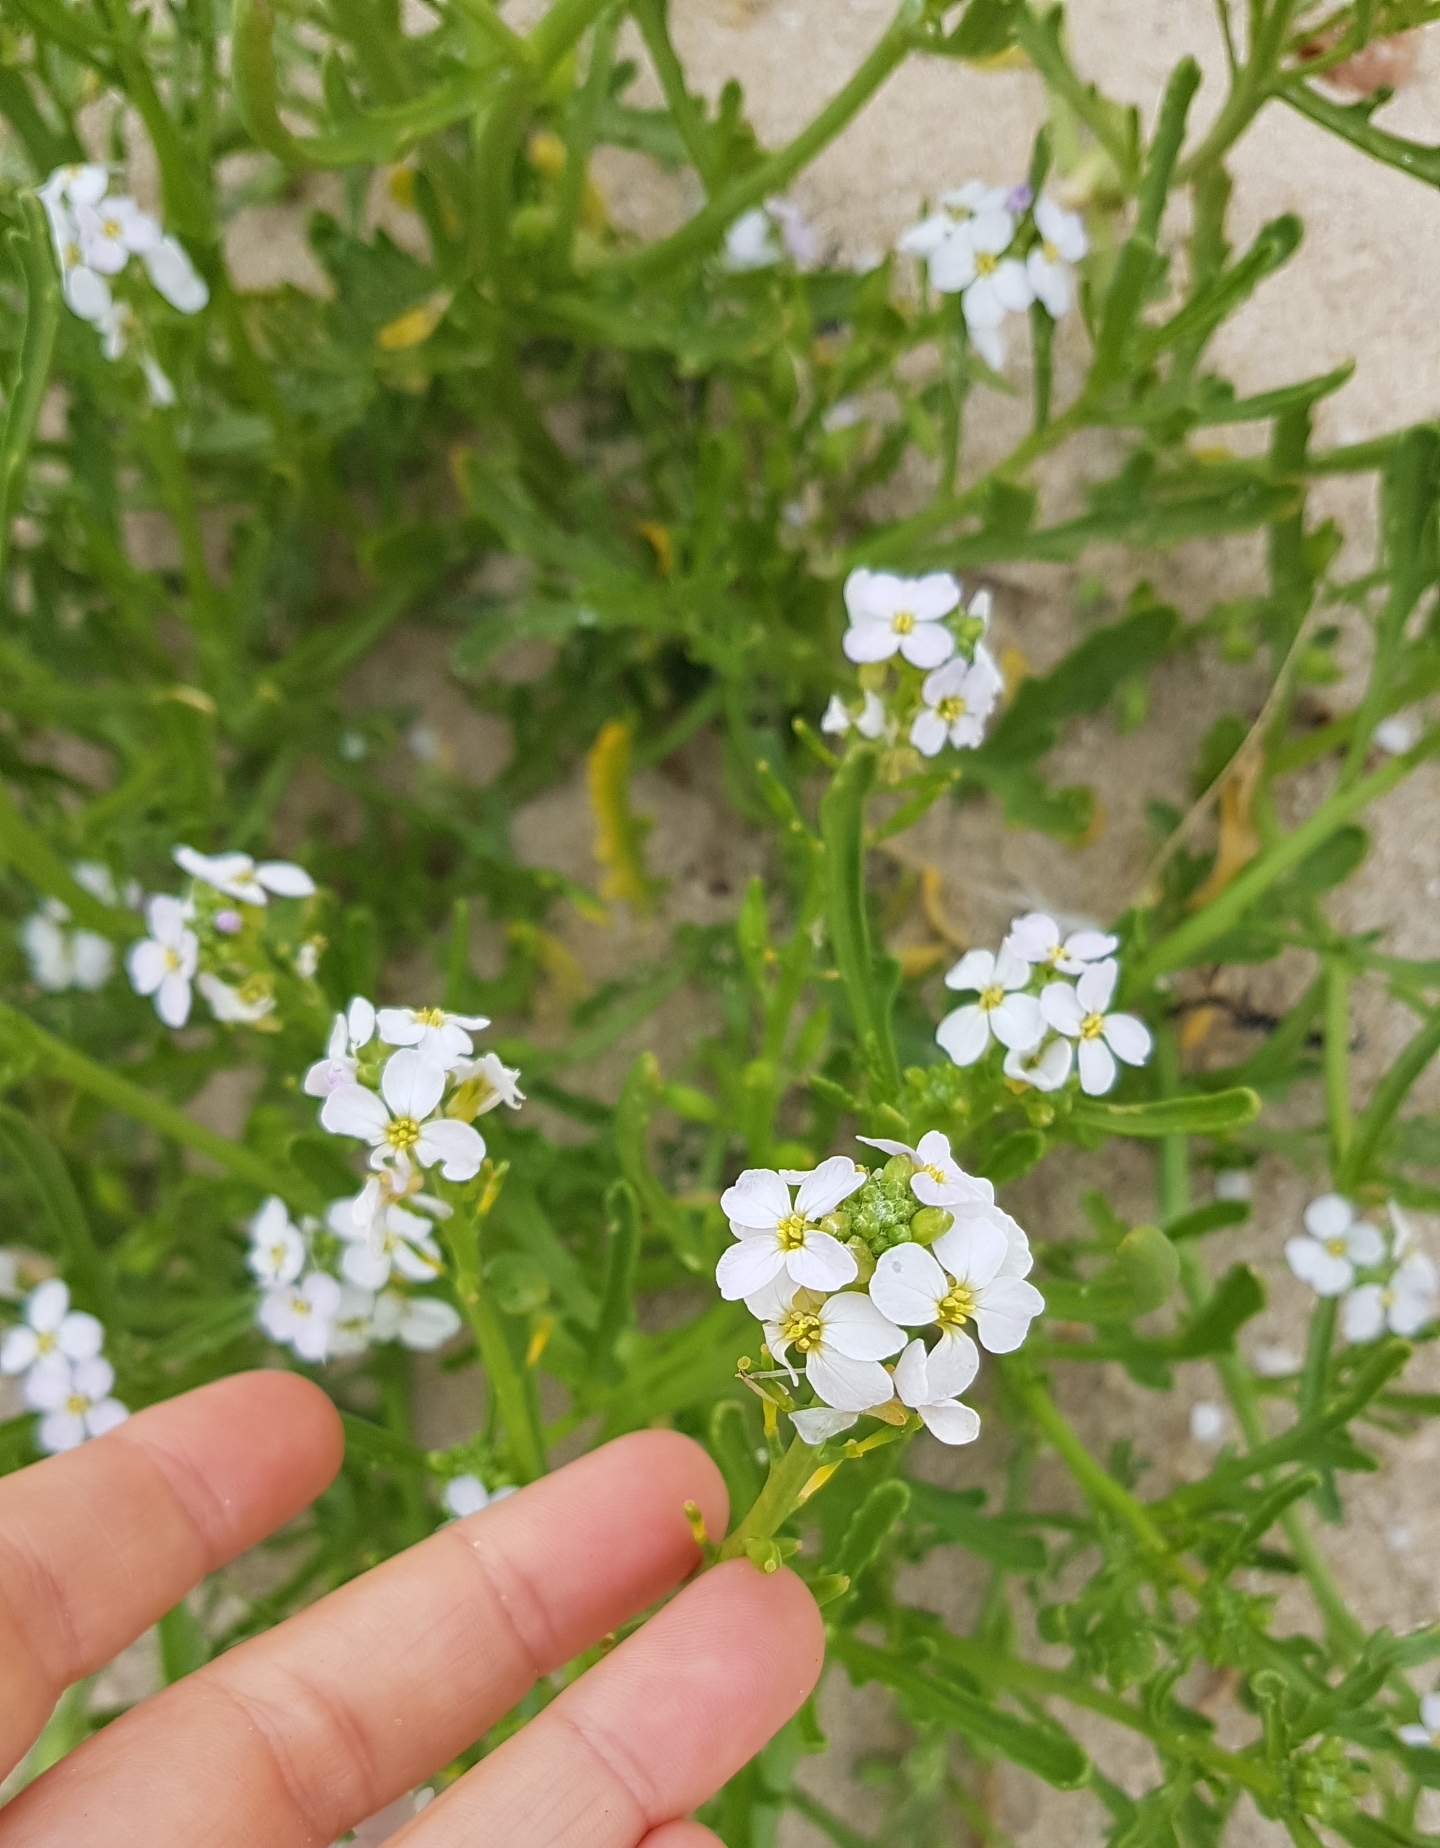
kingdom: Plantae
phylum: Tracheophyta
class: Magnoliopsida
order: Brassicales
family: Brassicaceae
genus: Cakile
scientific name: Cakile maritima
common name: Sea rocket
